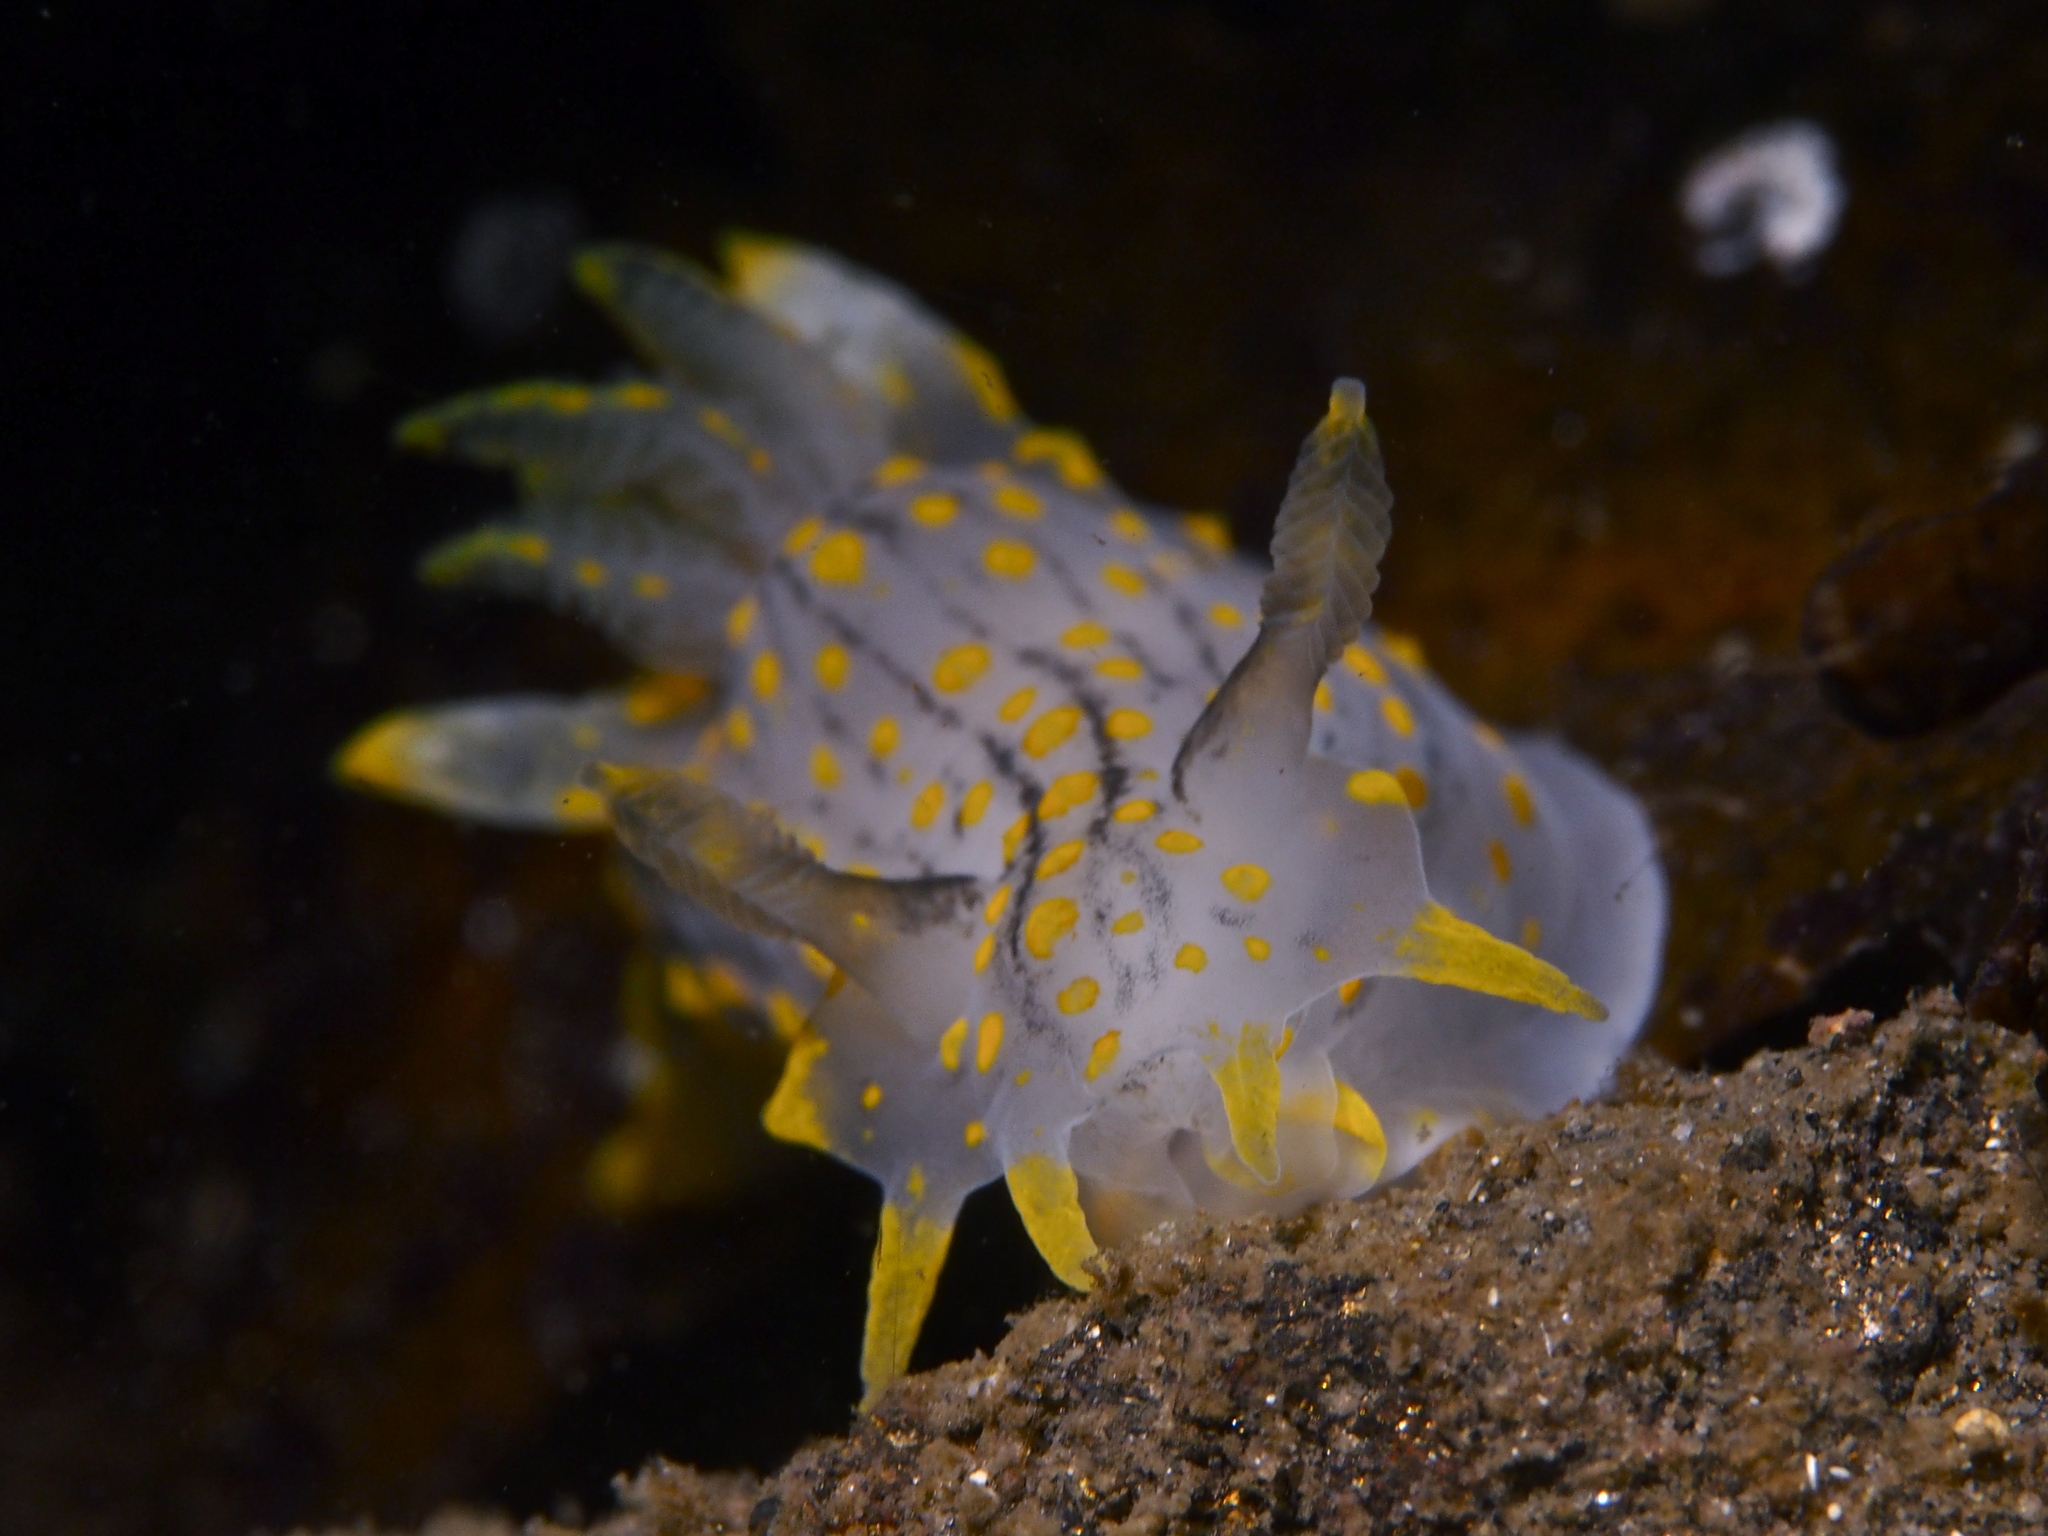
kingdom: Animalia
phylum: Mollusca
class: Gastropoda
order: Nudibranchia
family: Polyceridae
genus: Polycera
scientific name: Polycera quadrilineata
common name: Four-striped polycera
